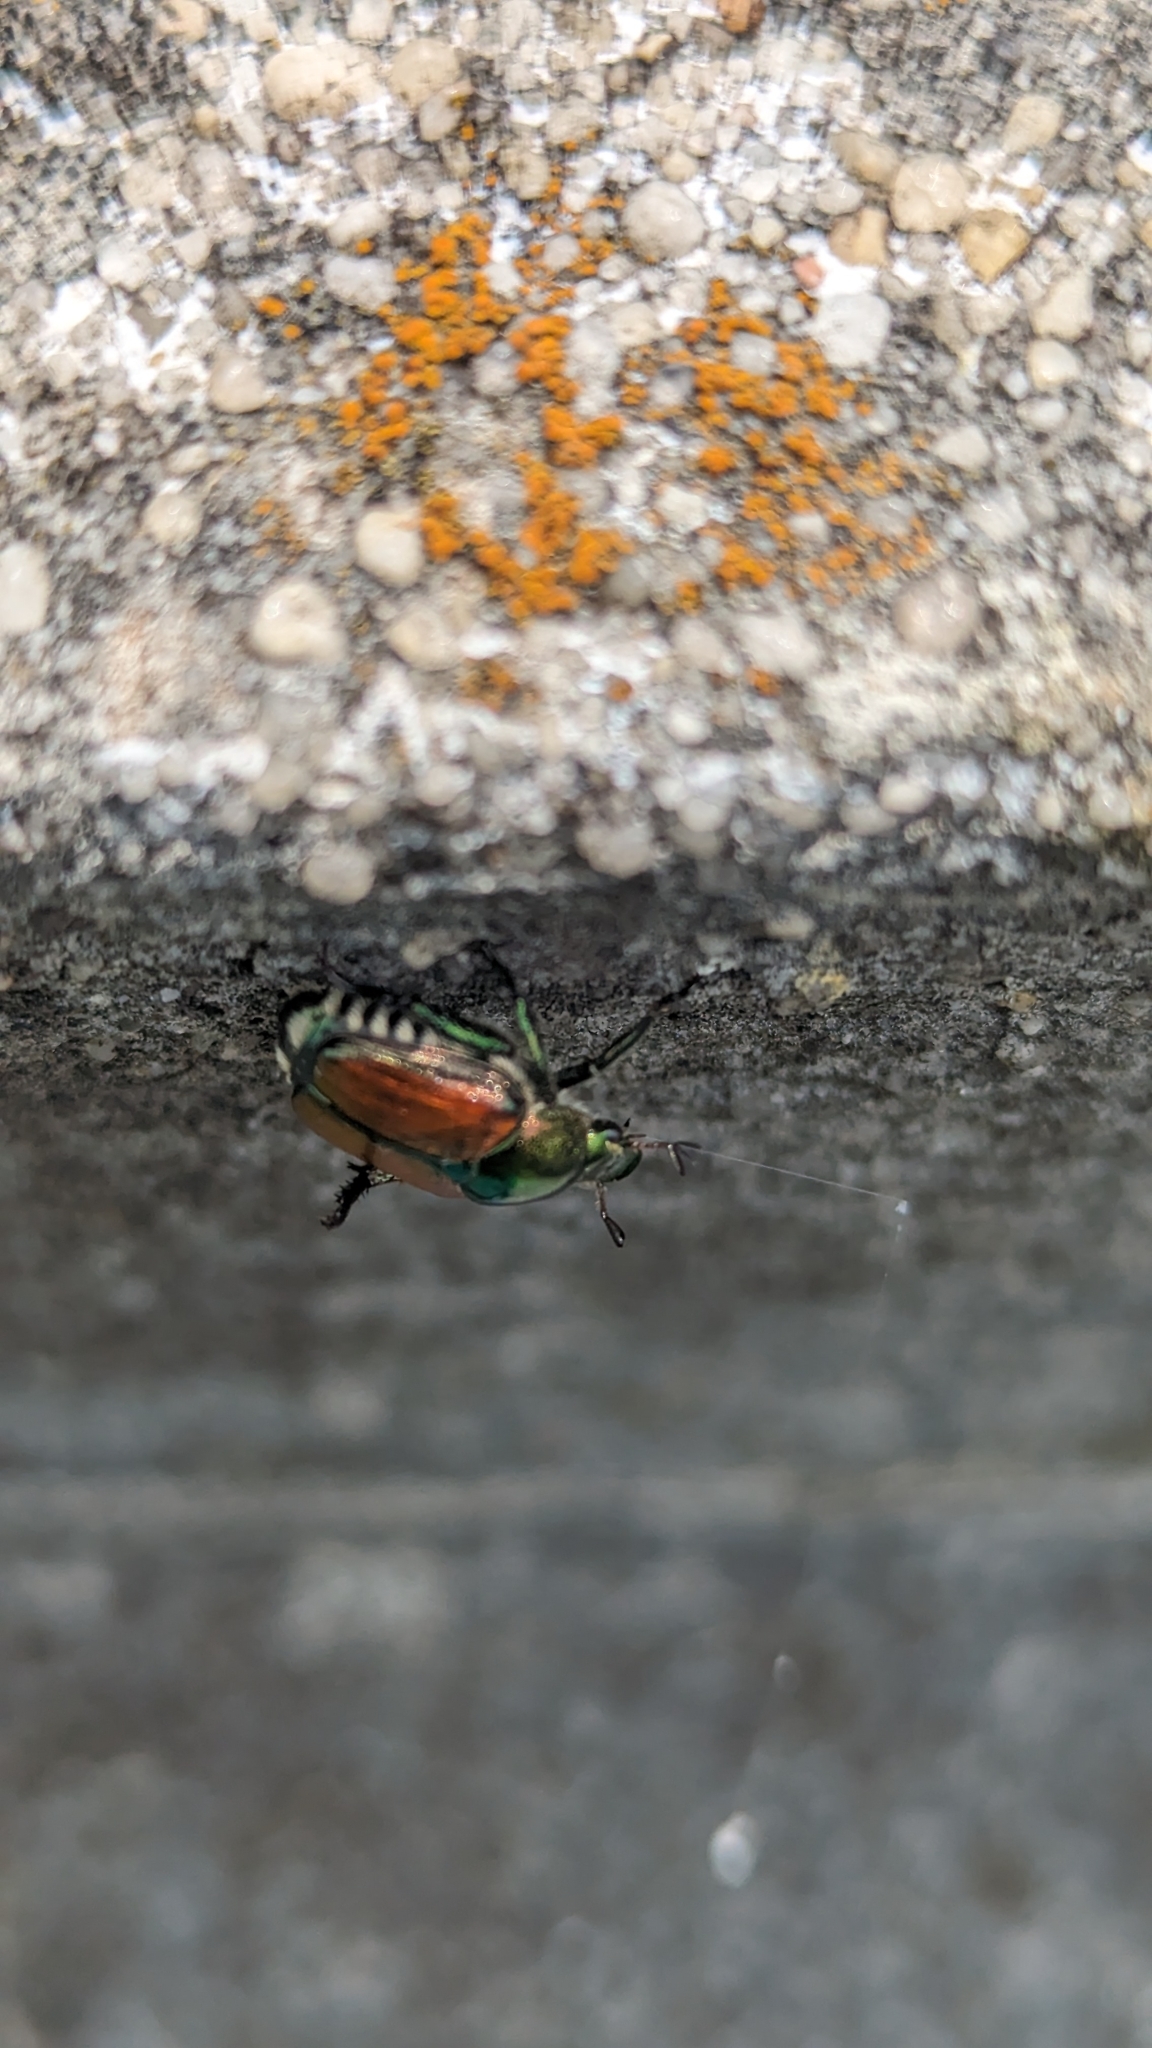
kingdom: Animalia
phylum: Arthropoda
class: Insecta
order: Coleoptera
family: Scarabaeidae
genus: Popillia
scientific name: Popillia japonica
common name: Japanese beetle
